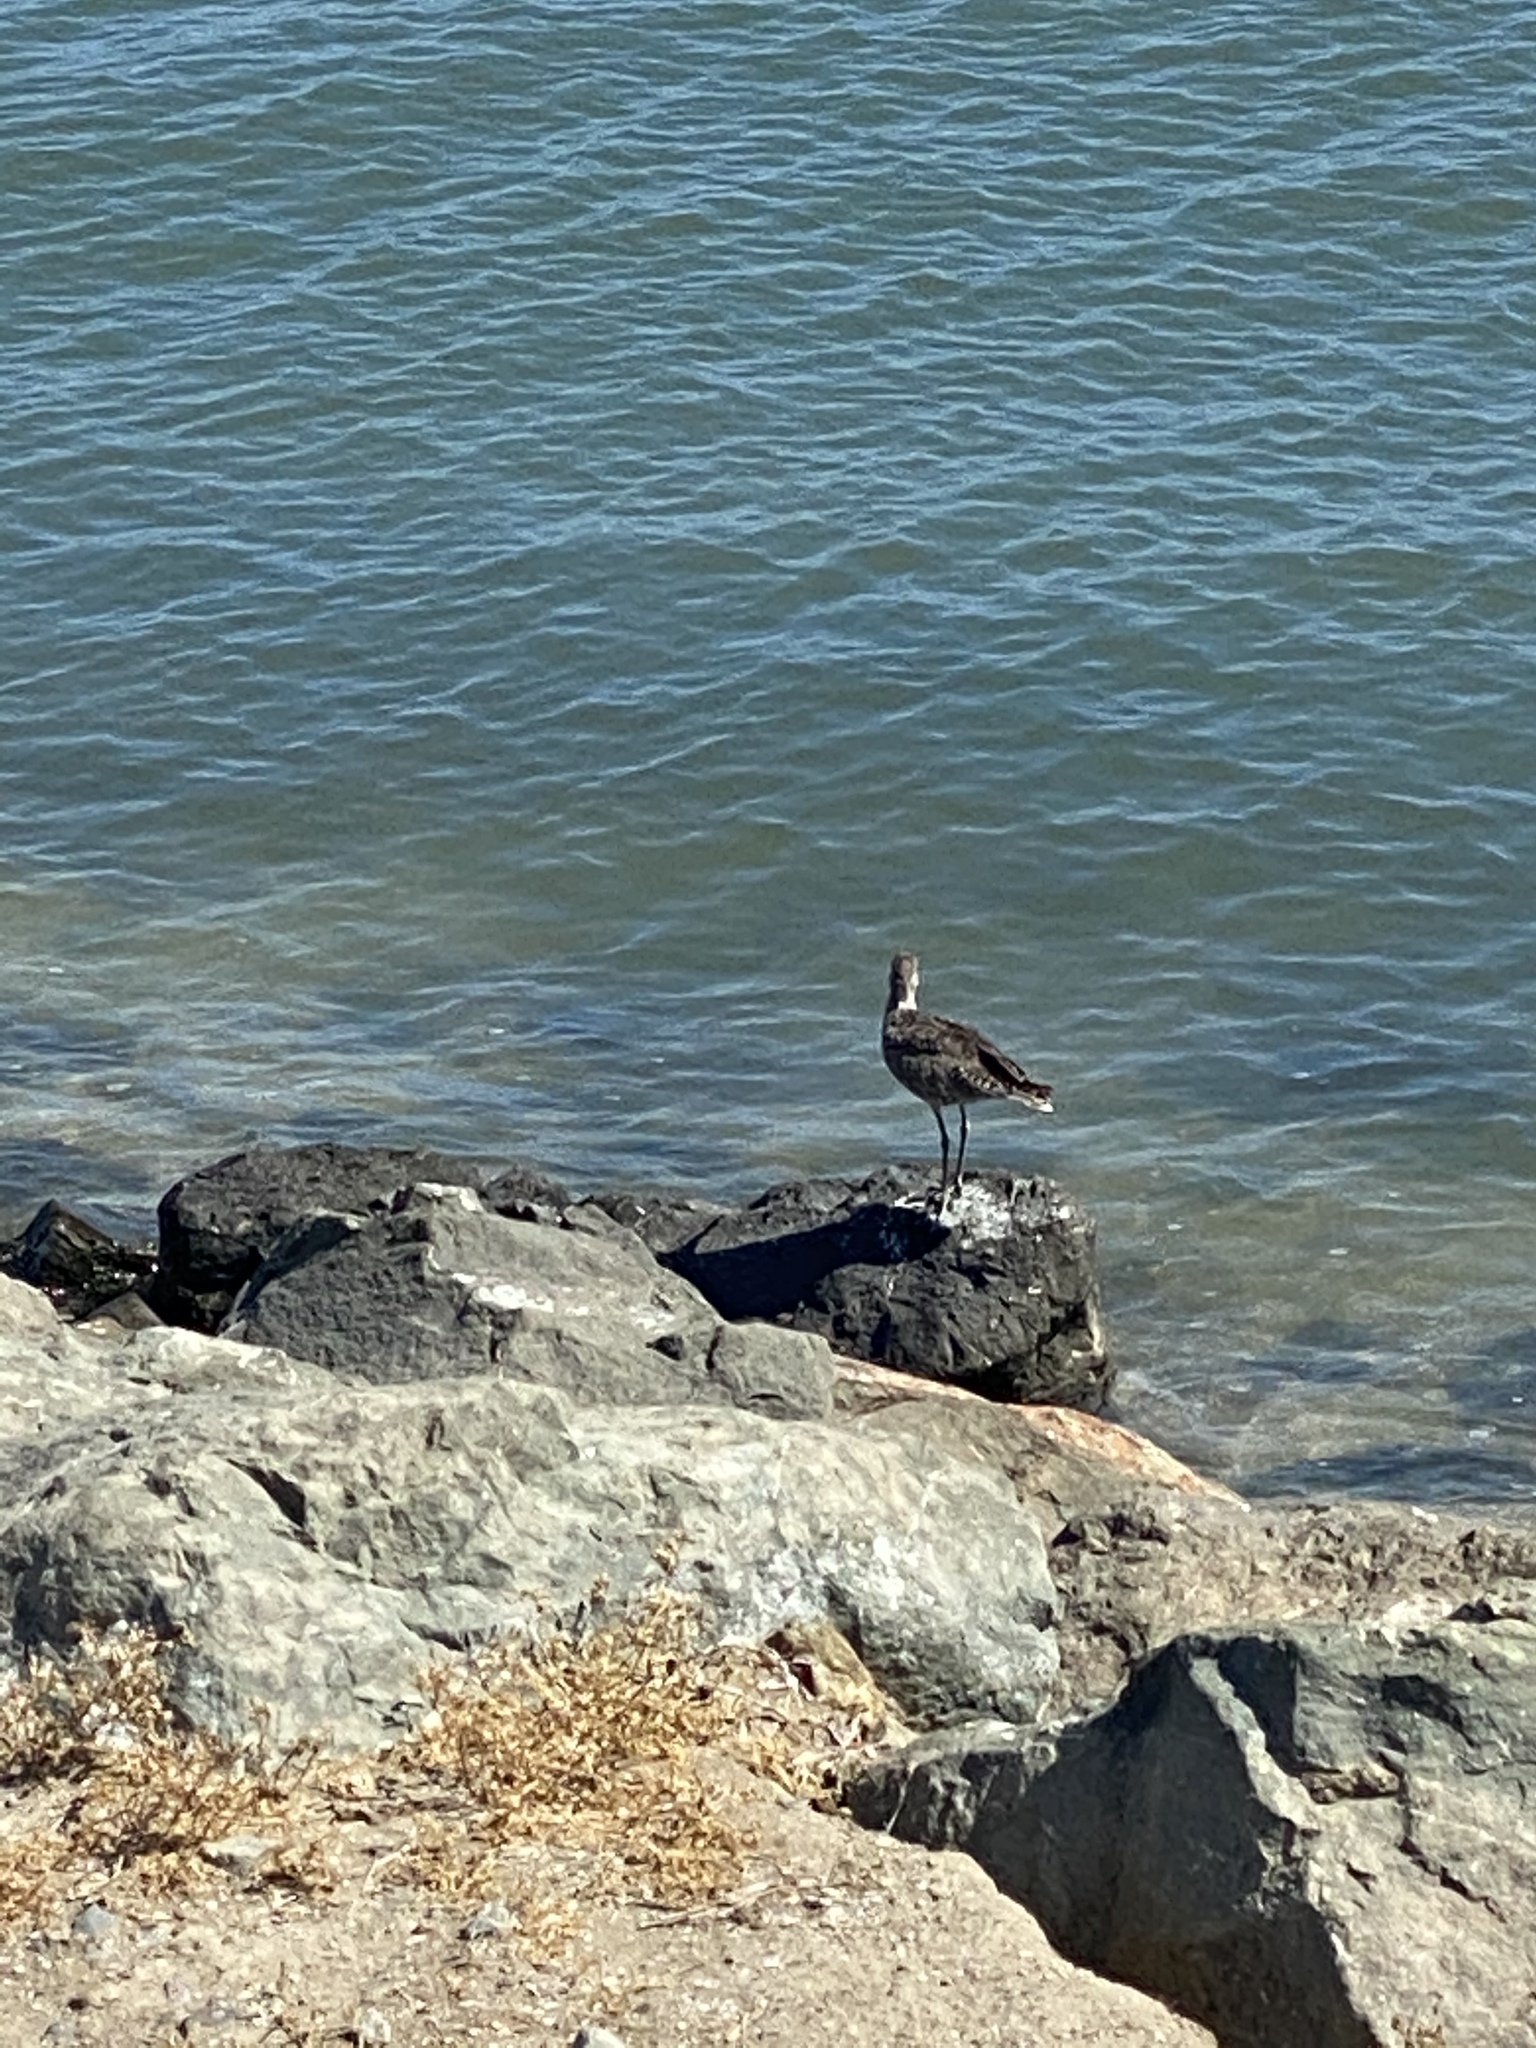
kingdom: Animalia
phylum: Chordata
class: Aves
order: Charadriiformes
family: Scolopacidae
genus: Tringa
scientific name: Tringa semipalmata
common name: Willet
